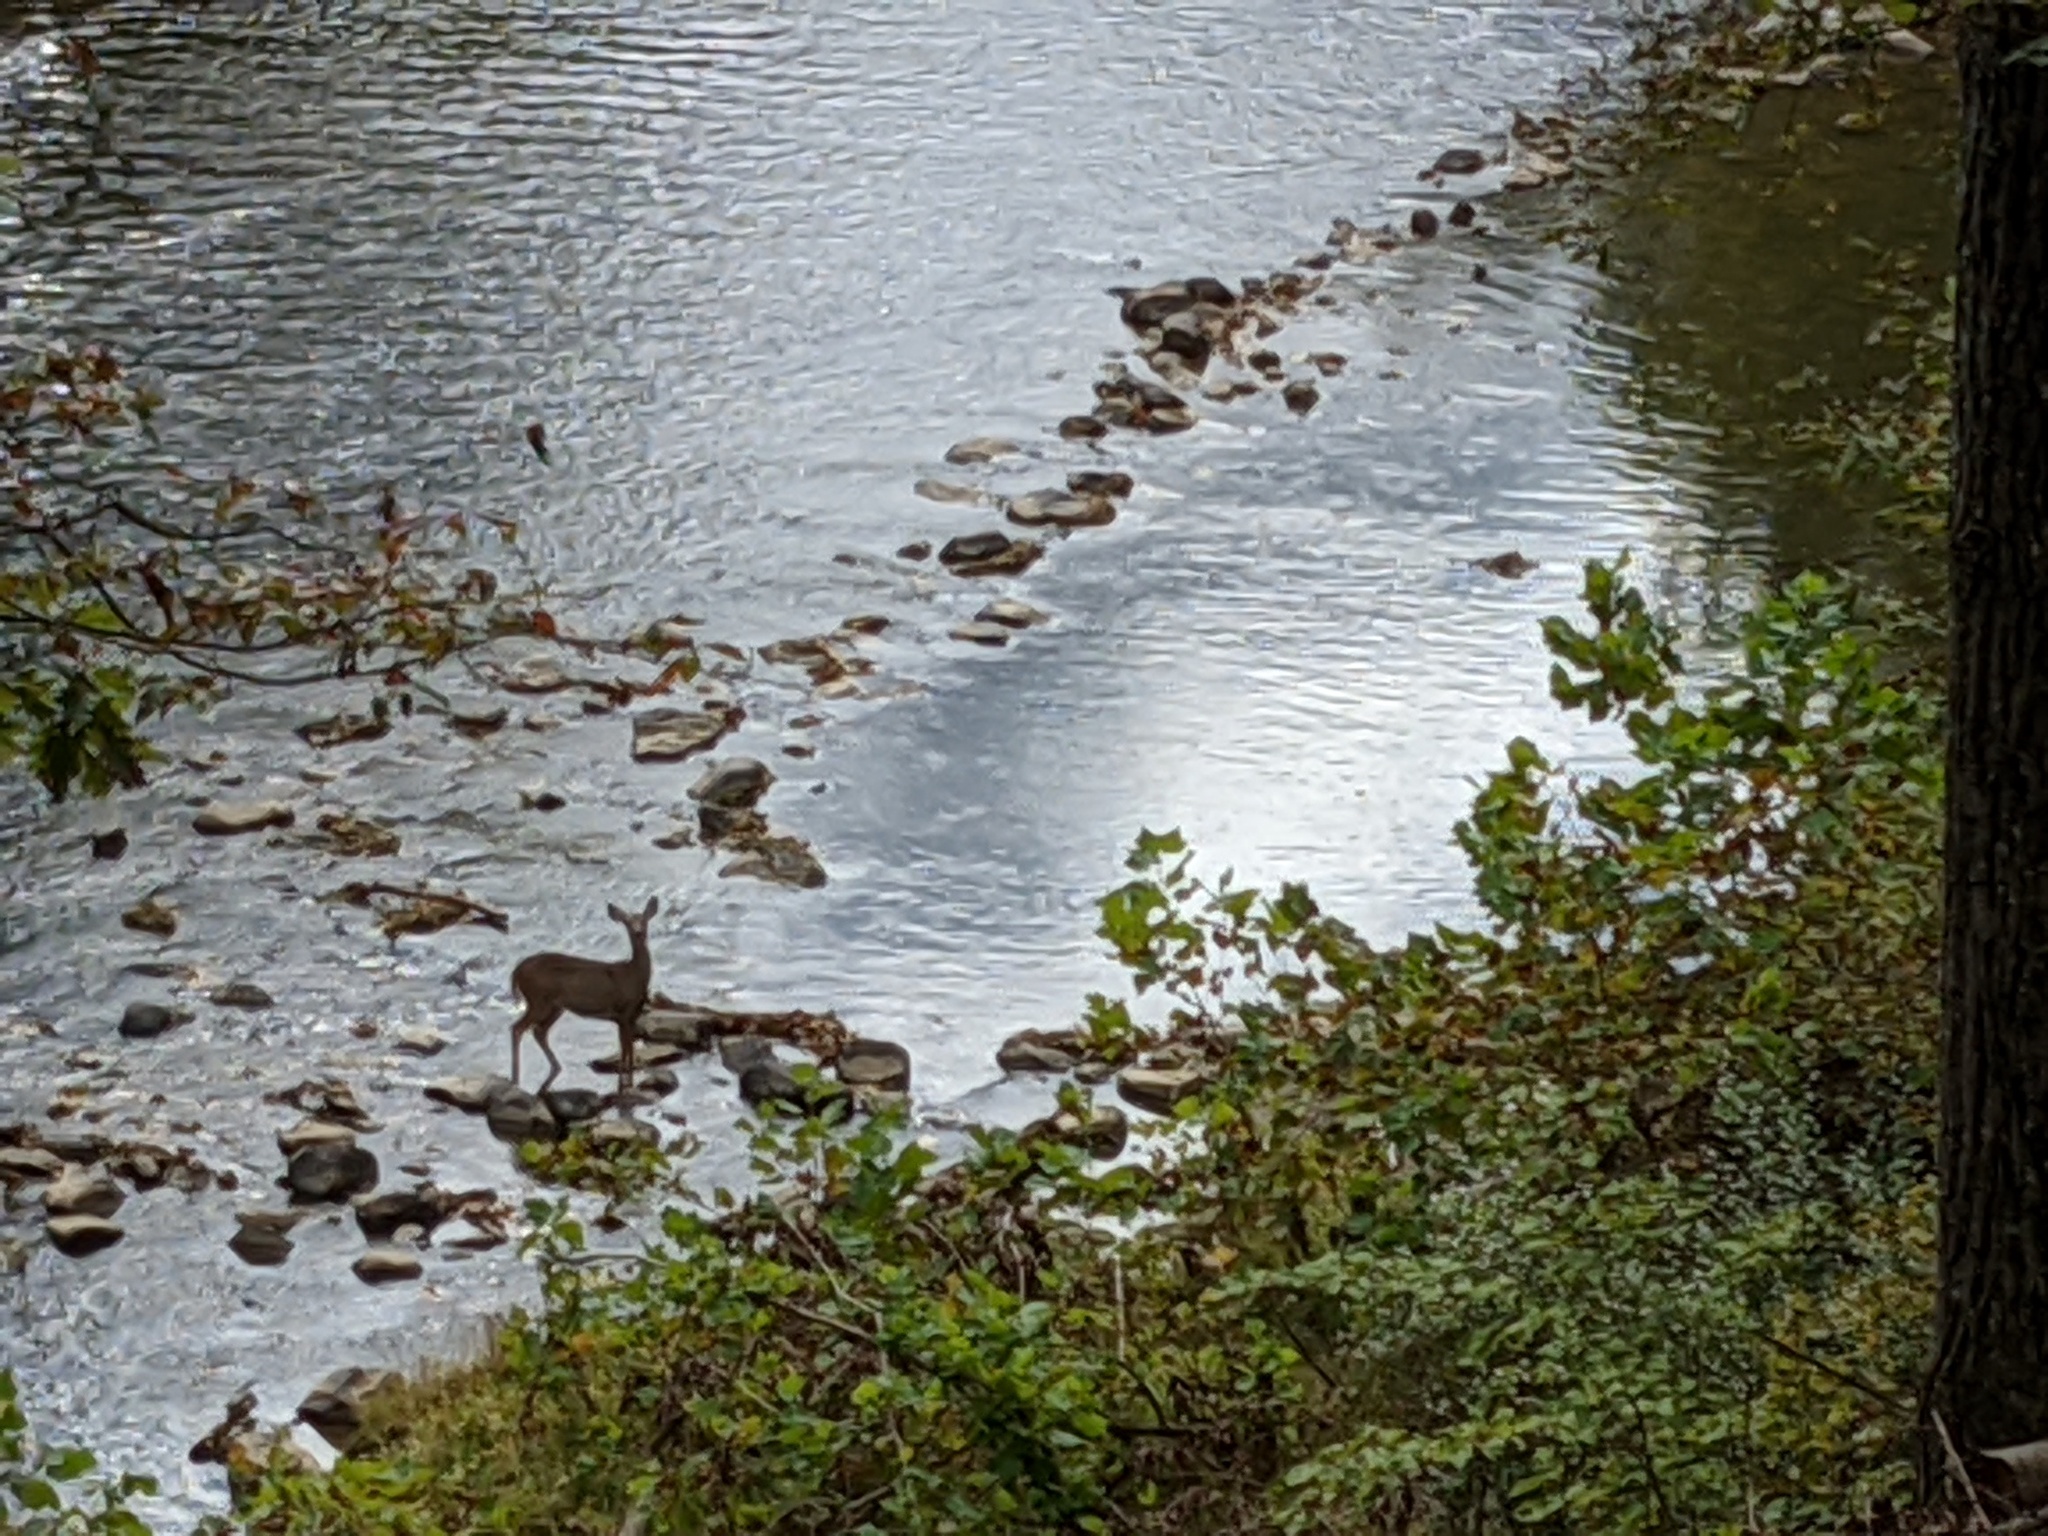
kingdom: Animalia
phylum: Chordata
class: Mammalia
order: Artiodactyla
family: Cervidae
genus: Odocoileus
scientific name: Odocoileus virginianus
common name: White-tailed deer
